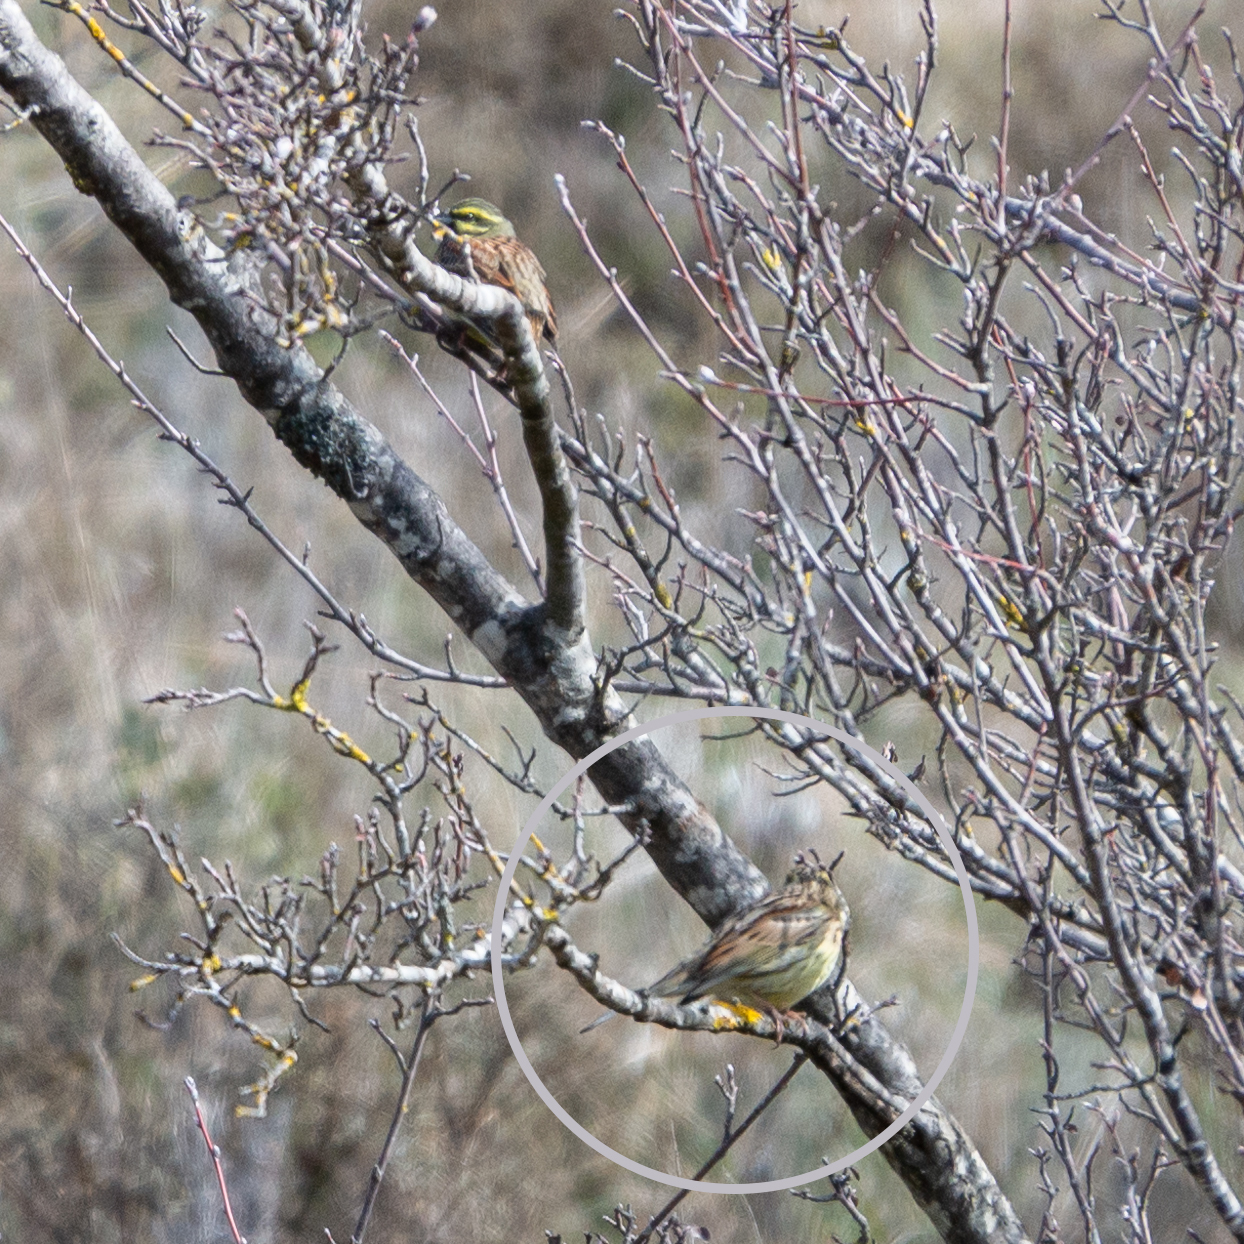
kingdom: Animalia
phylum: Chordata
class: Aves
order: Passeriformes
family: Emberizidae
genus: Emberiza
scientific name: Emberiza cirlus
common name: Cirl bunting
